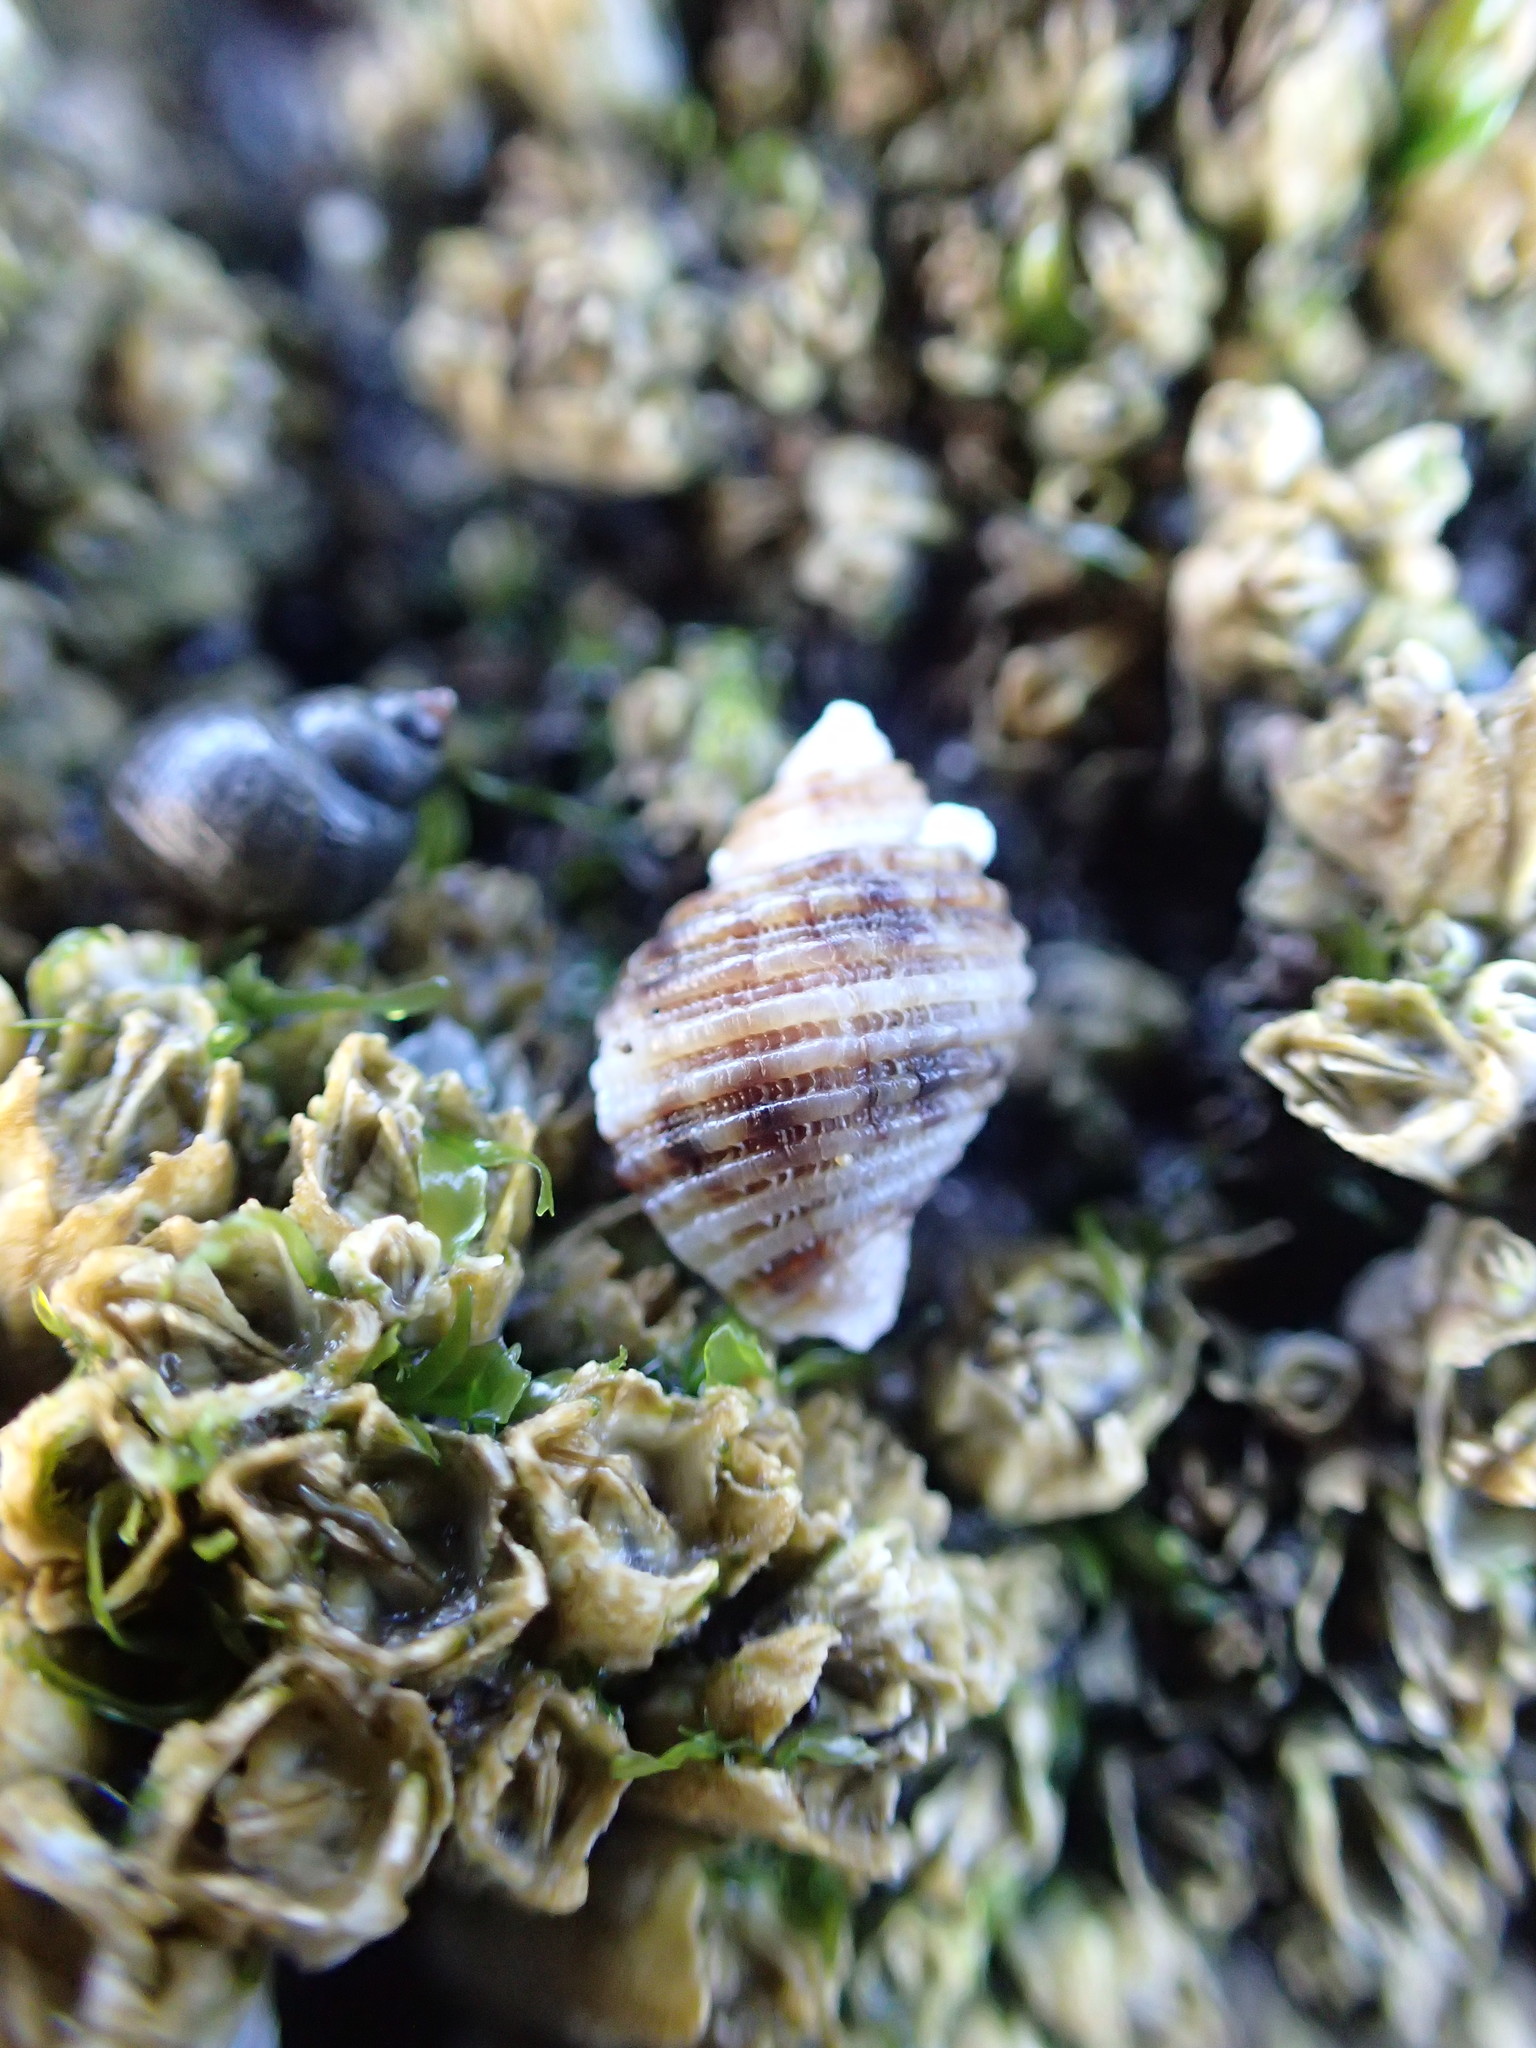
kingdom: Animalia
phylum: Mollusca
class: Gastropoda
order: Neogastropoda
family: Muricidae
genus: Nucella
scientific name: Nucella canaliculata
